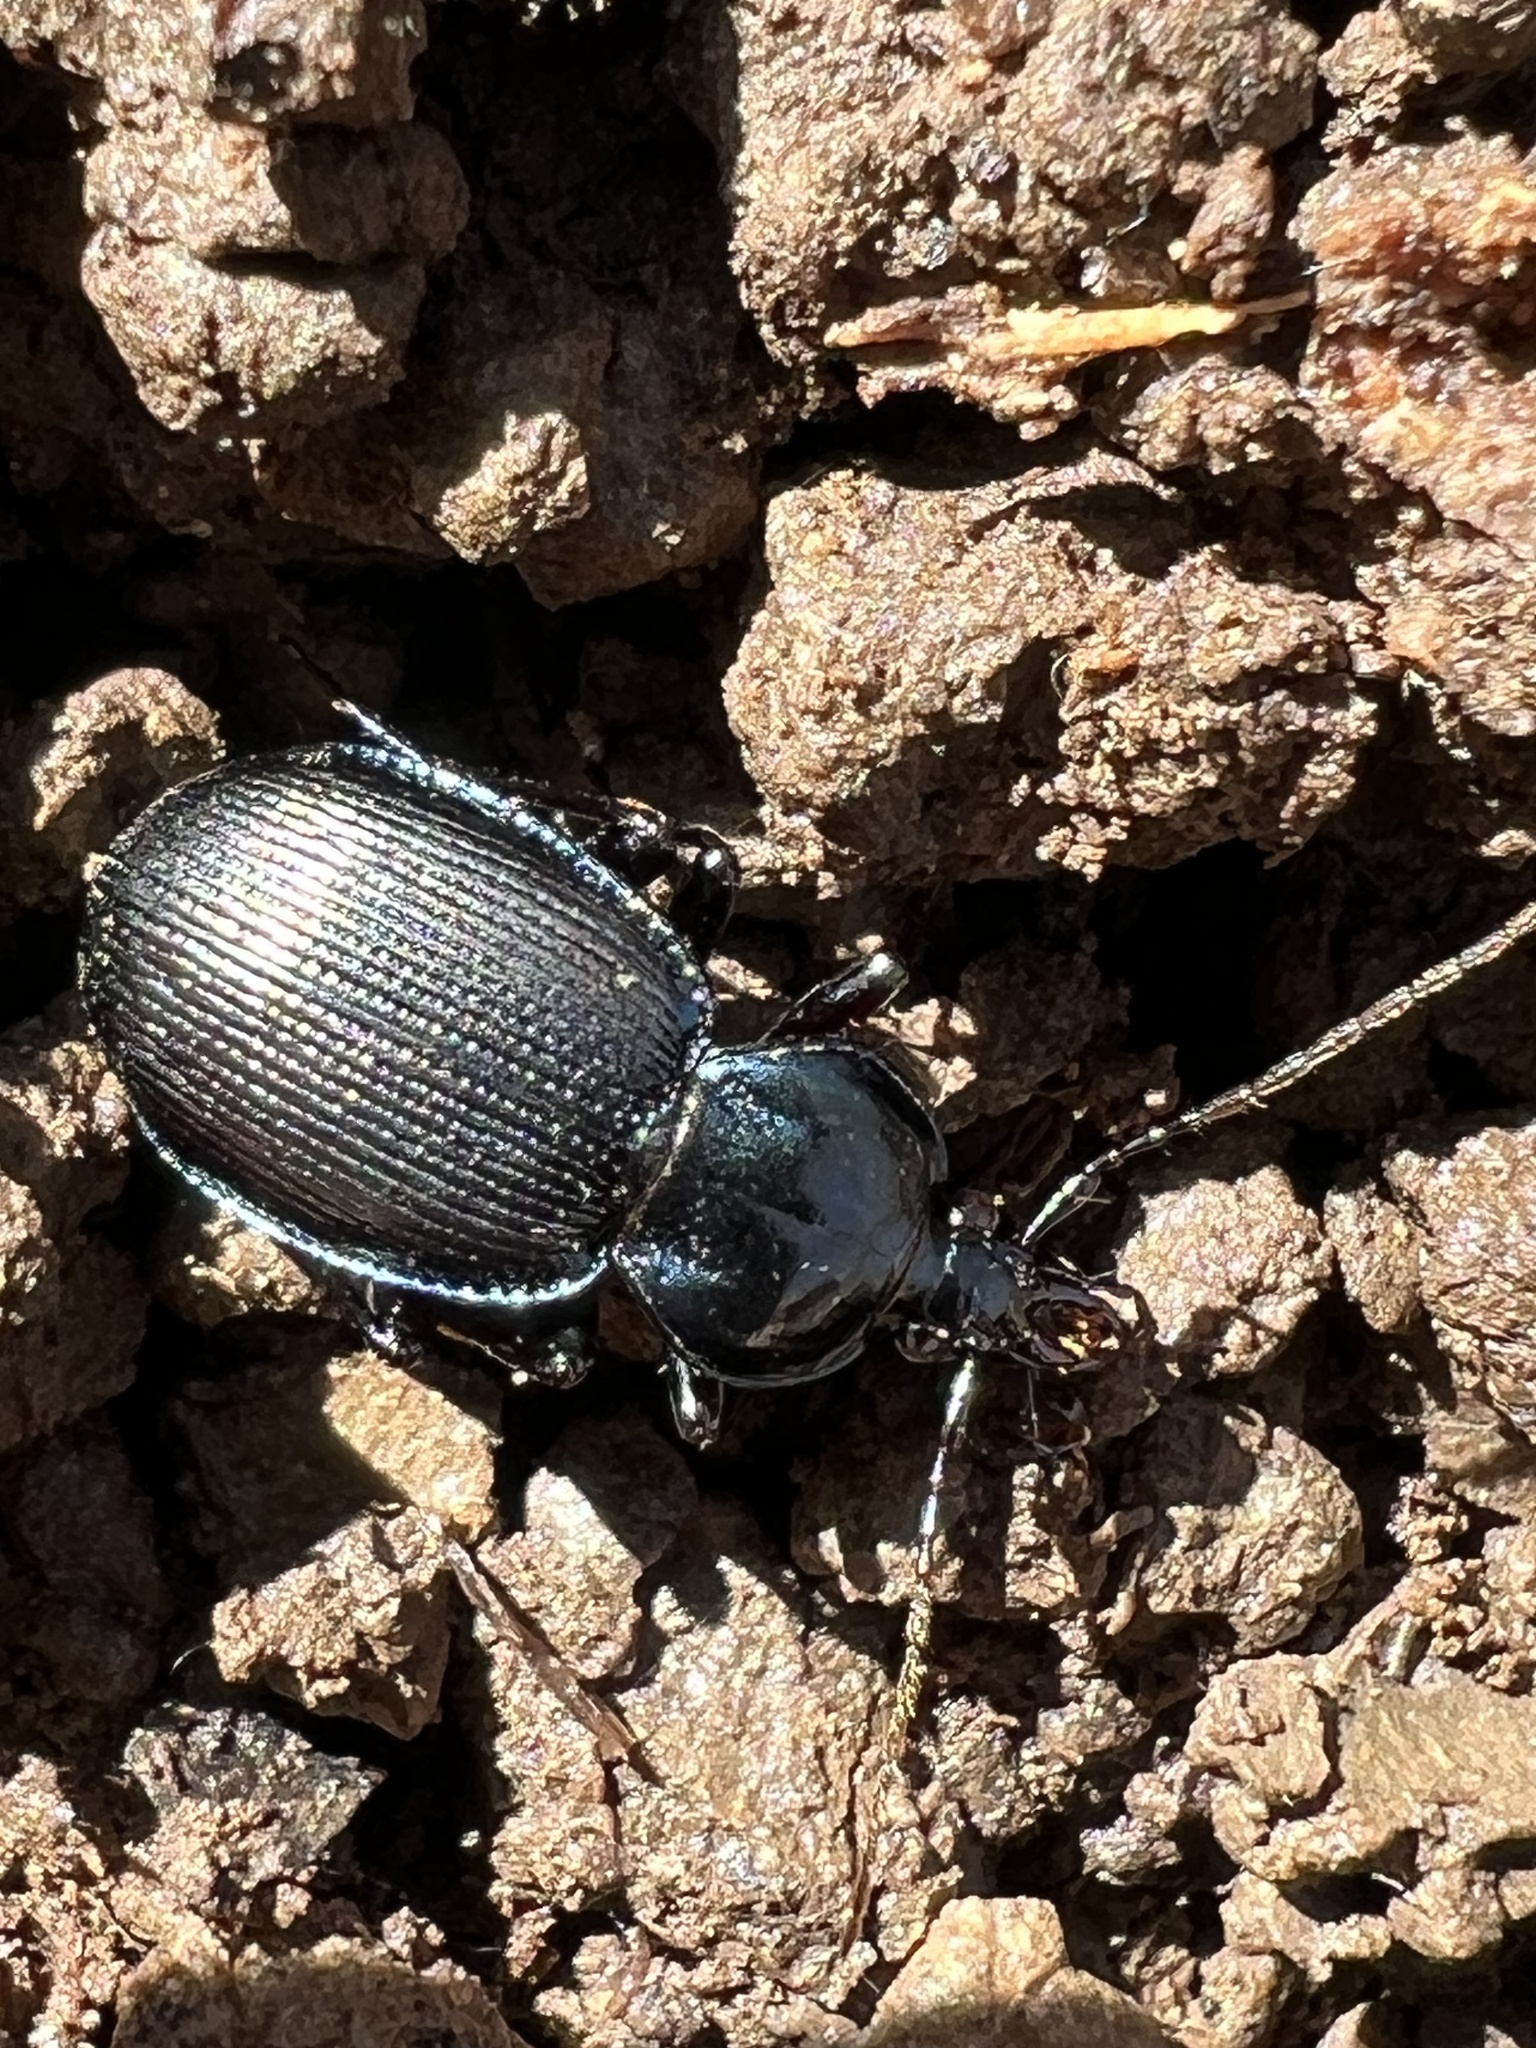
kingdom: Animalia
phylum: Arthropoda
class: Insecta
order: Coleoptera
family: Carabidae
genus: Sphaeroderus
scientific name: Sphaeroderus stenostomus
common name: Small snail-eating ground beetle
